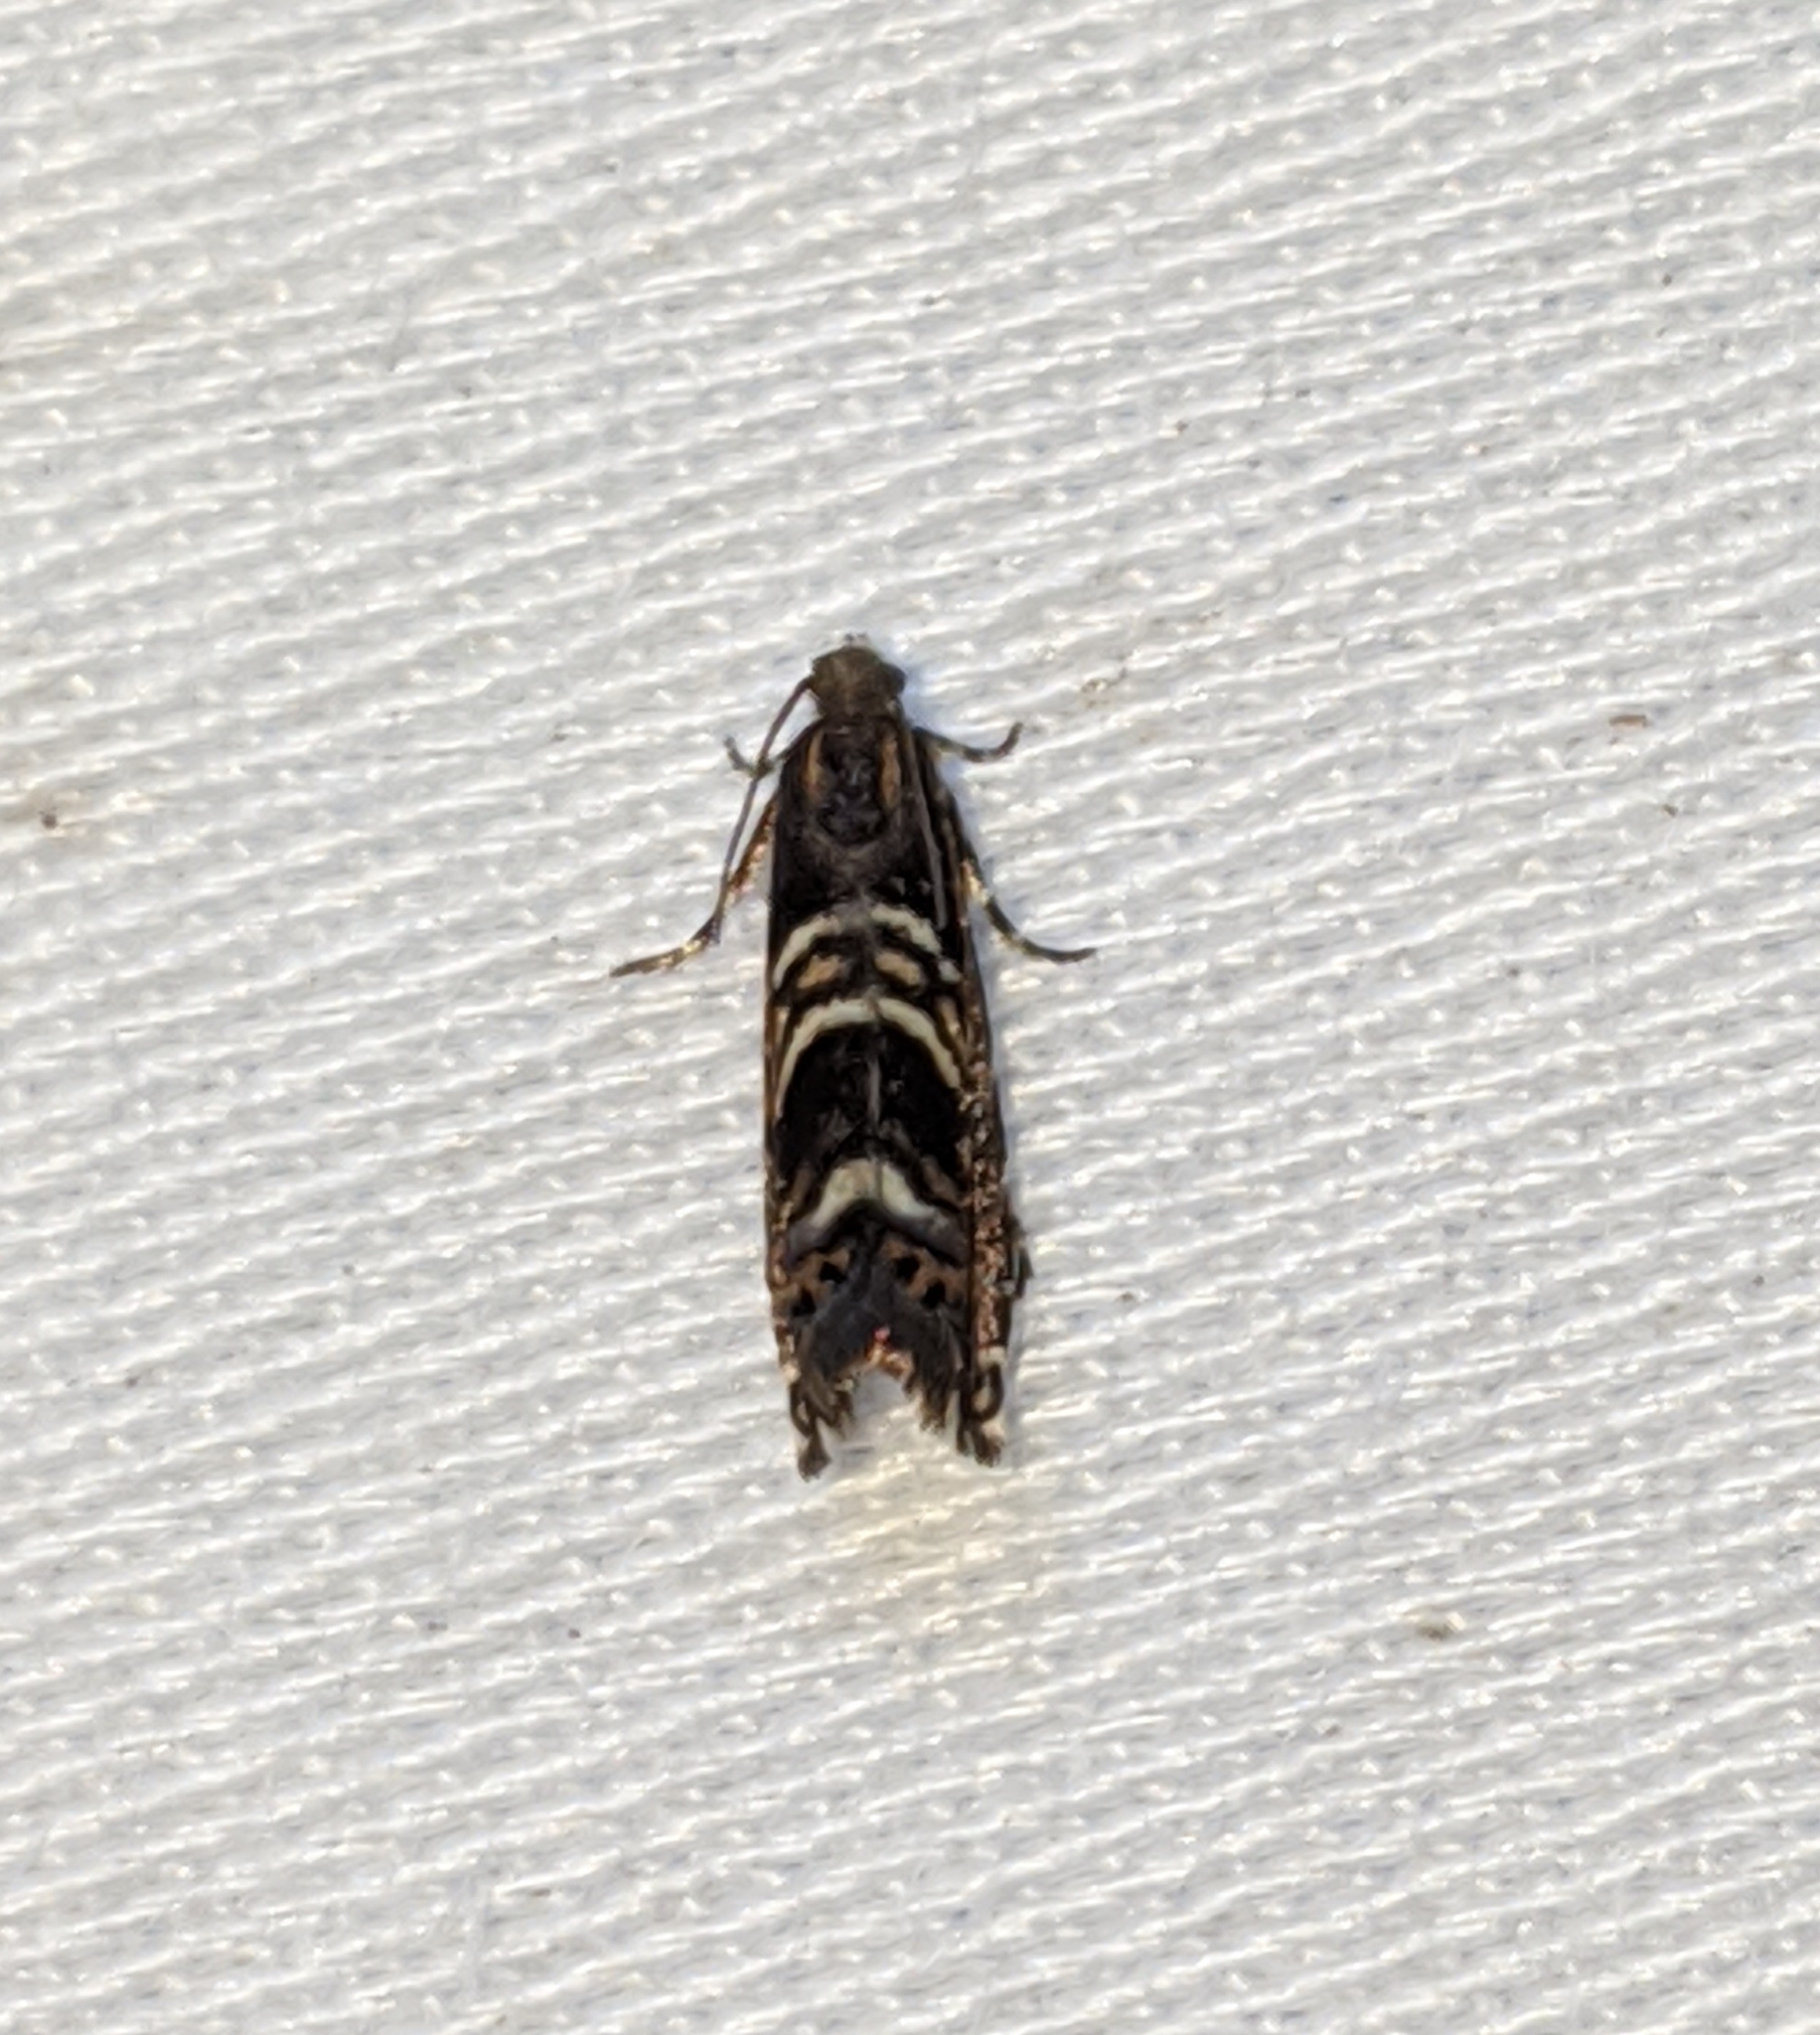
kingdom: Animalia
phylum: Arthropoda
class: Insecta
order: Lepidoptera
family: Tortricidae
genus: Thaumatographa
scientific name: Thaumatographa youngiella
